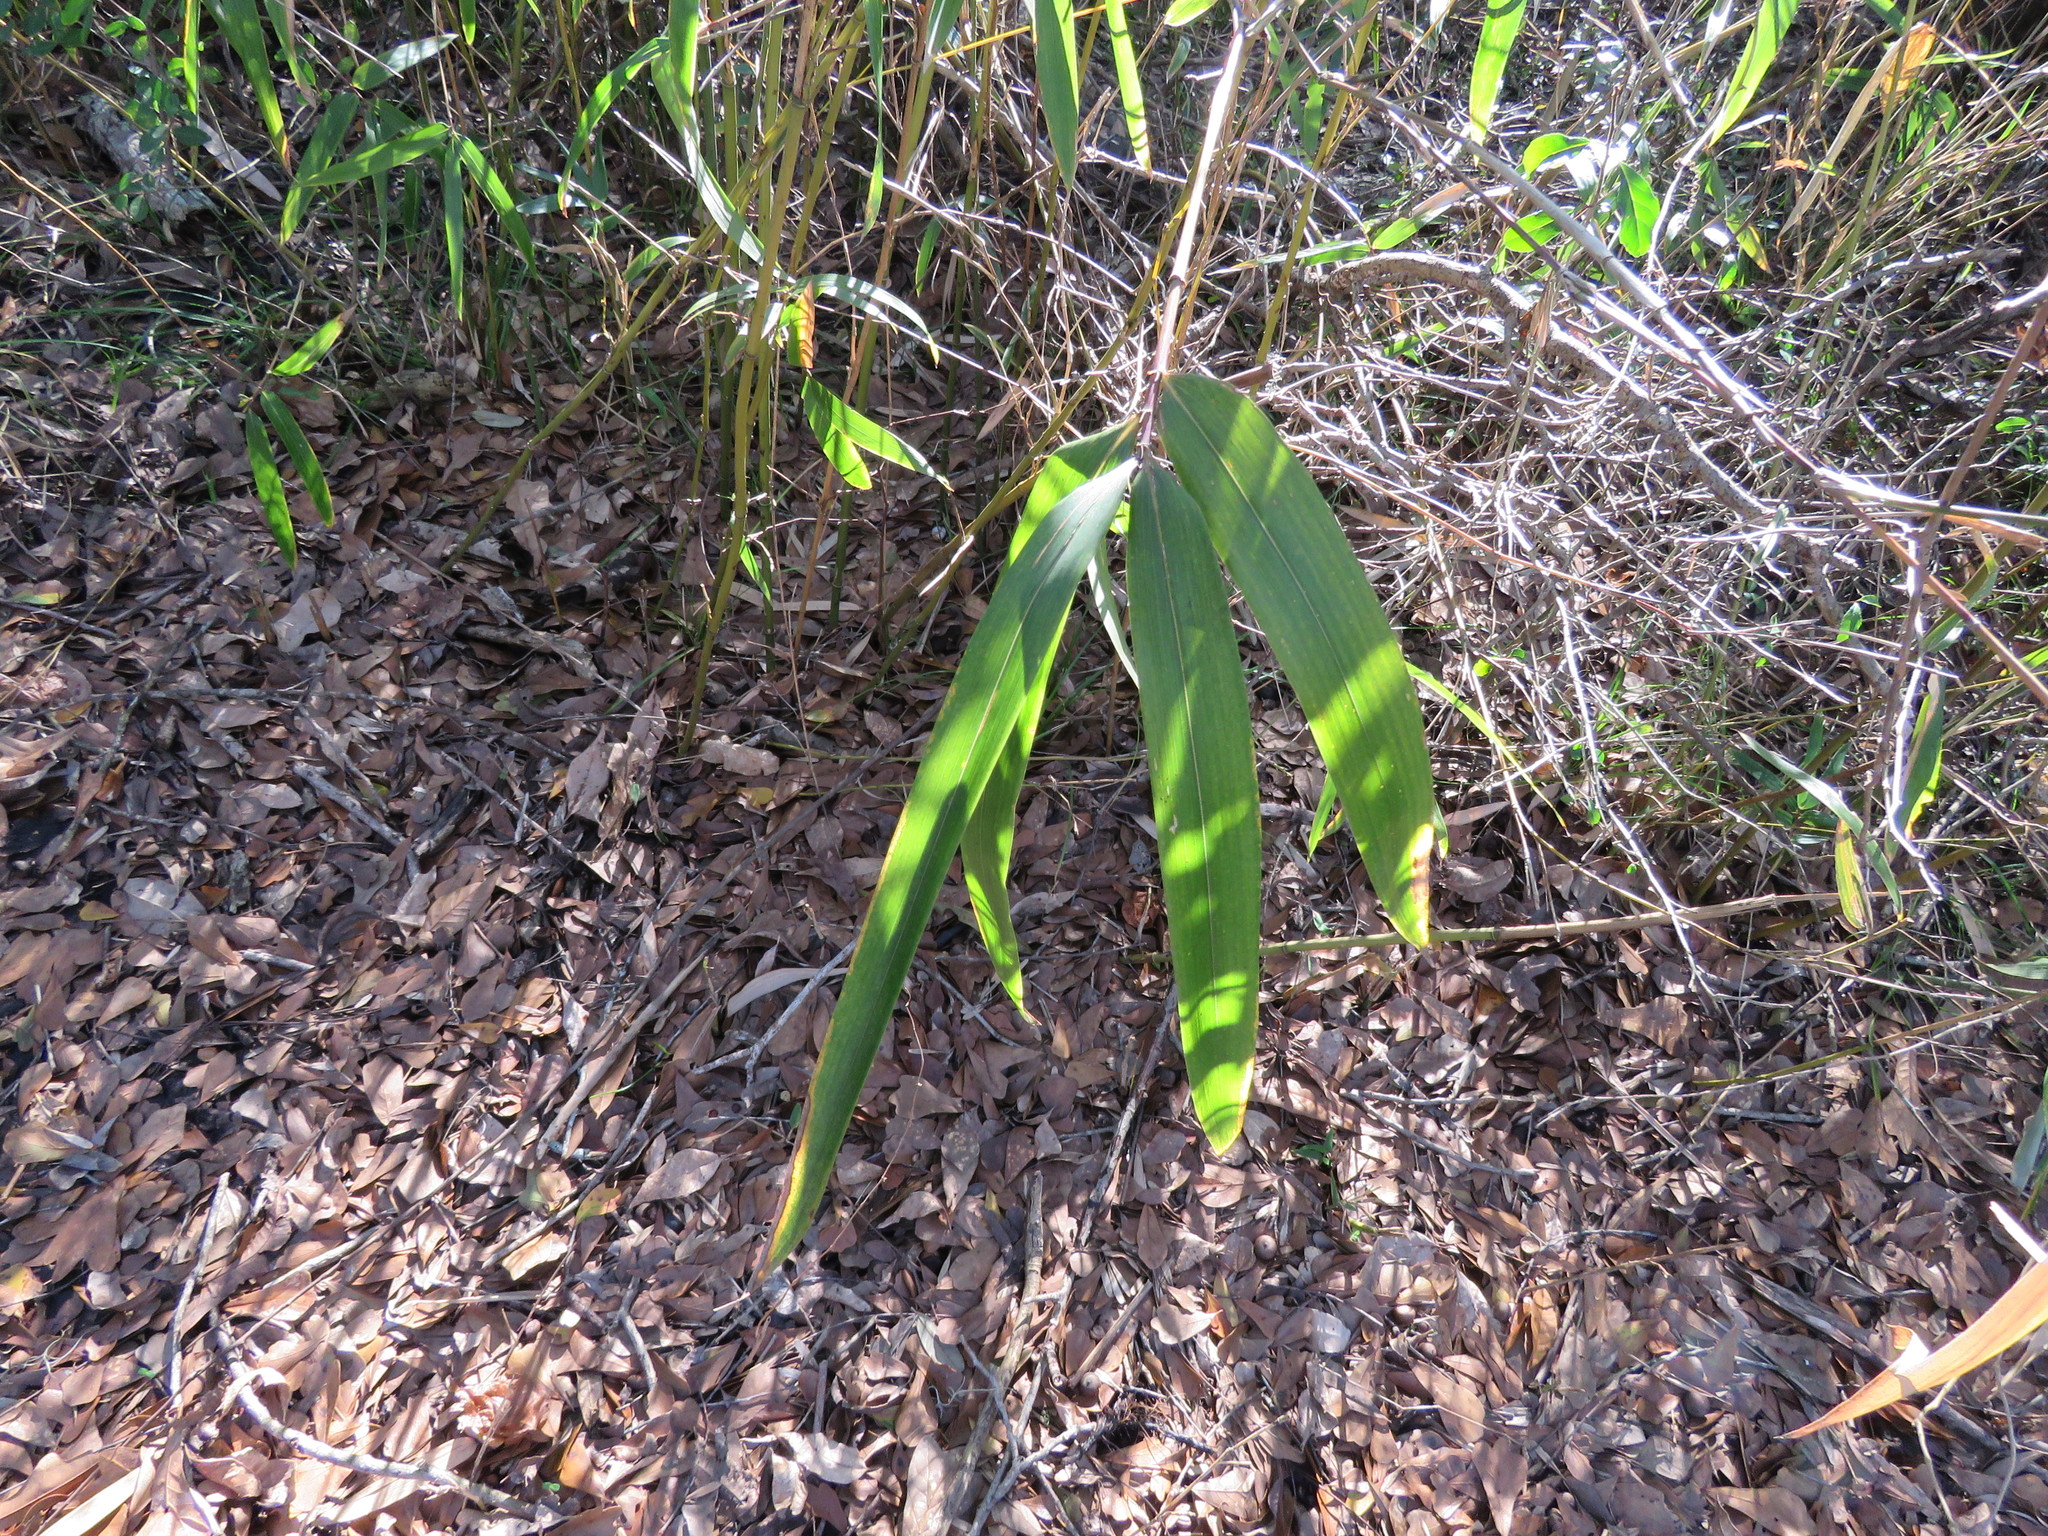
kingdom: Plantae
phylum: Tracheophyta
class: Liliopsida
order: Poales
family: Poaceae
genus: Arundinaria
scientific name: Arundinaria gigantea
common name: Giant cane
